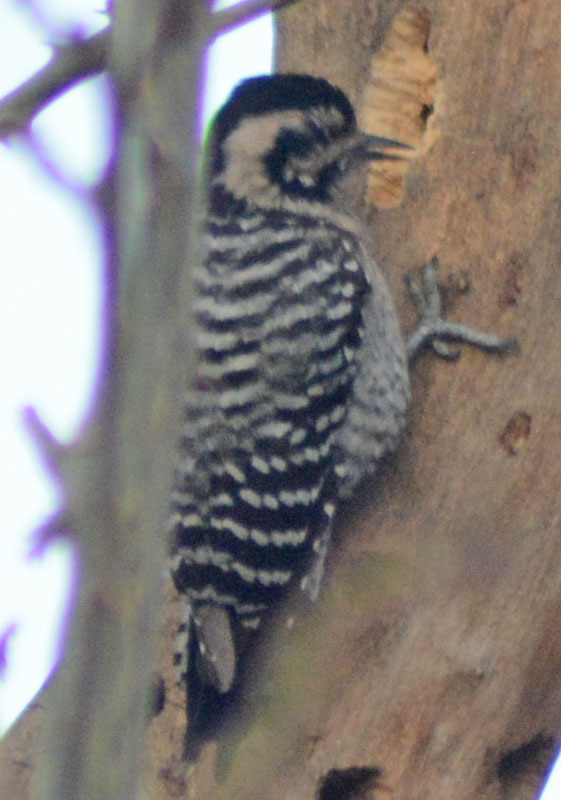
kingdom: Animalia
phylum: Chordata
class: Aves
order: Piciformes
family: Picidae
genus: Dryobates
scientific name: Dryobates scalaris
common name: Ladder-backed woodpecker
